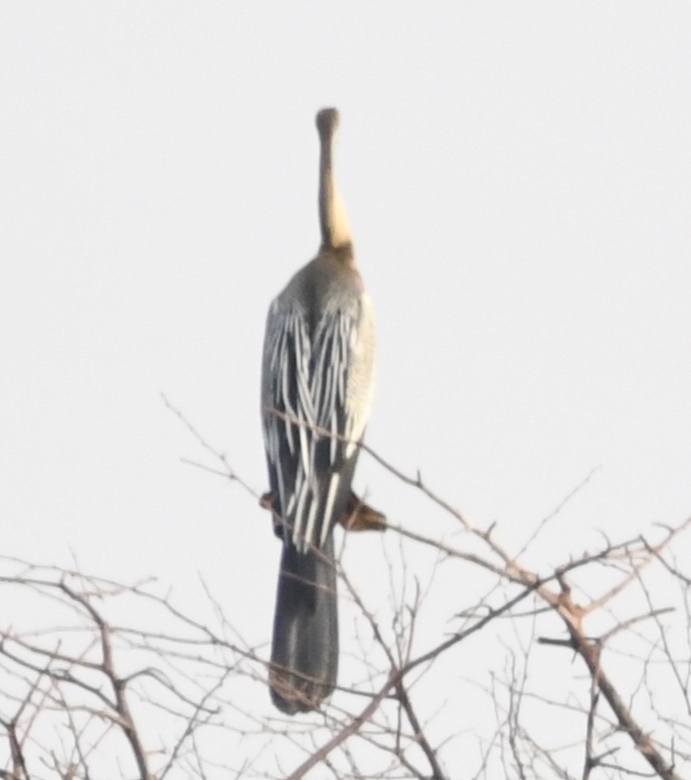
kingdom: Animalia
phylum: Chordata
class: Aves
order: Suliformes
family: Anhingidae
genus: Anhinga
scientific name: Anhinga melanogaster
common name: Oriental darter
